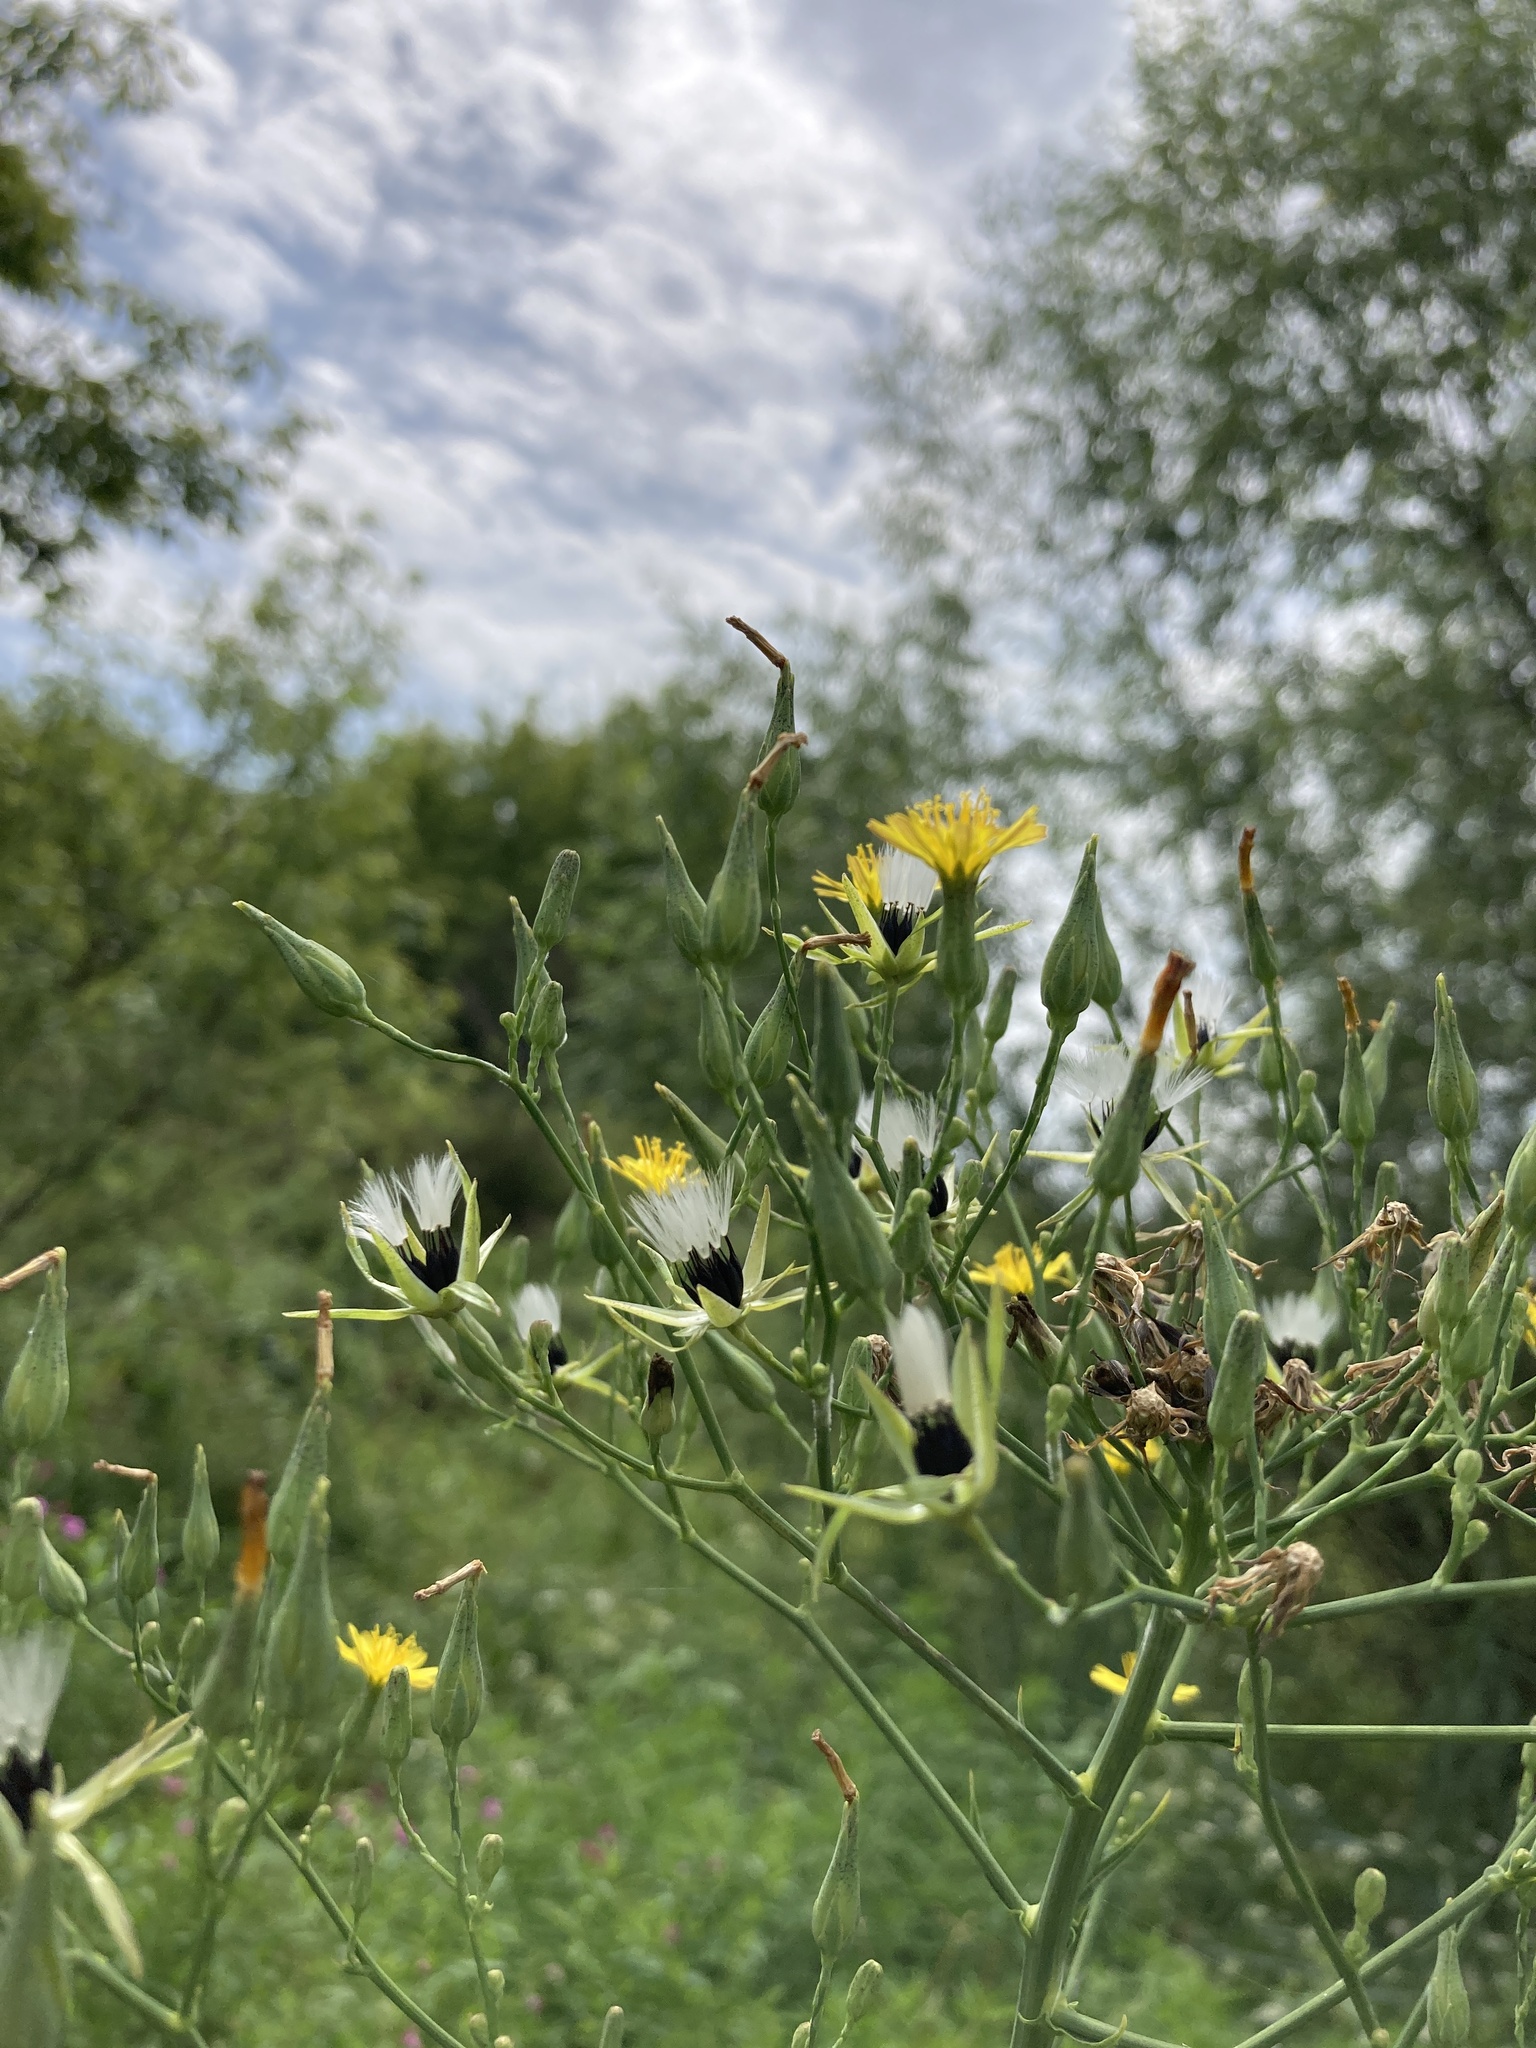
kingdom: Plantae
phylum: Tracheophyta
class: Magnoliopsida
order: Asterales
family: Asteraceae
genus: Lactuca
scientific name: Lactuca quercina
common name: Wild lettuce
